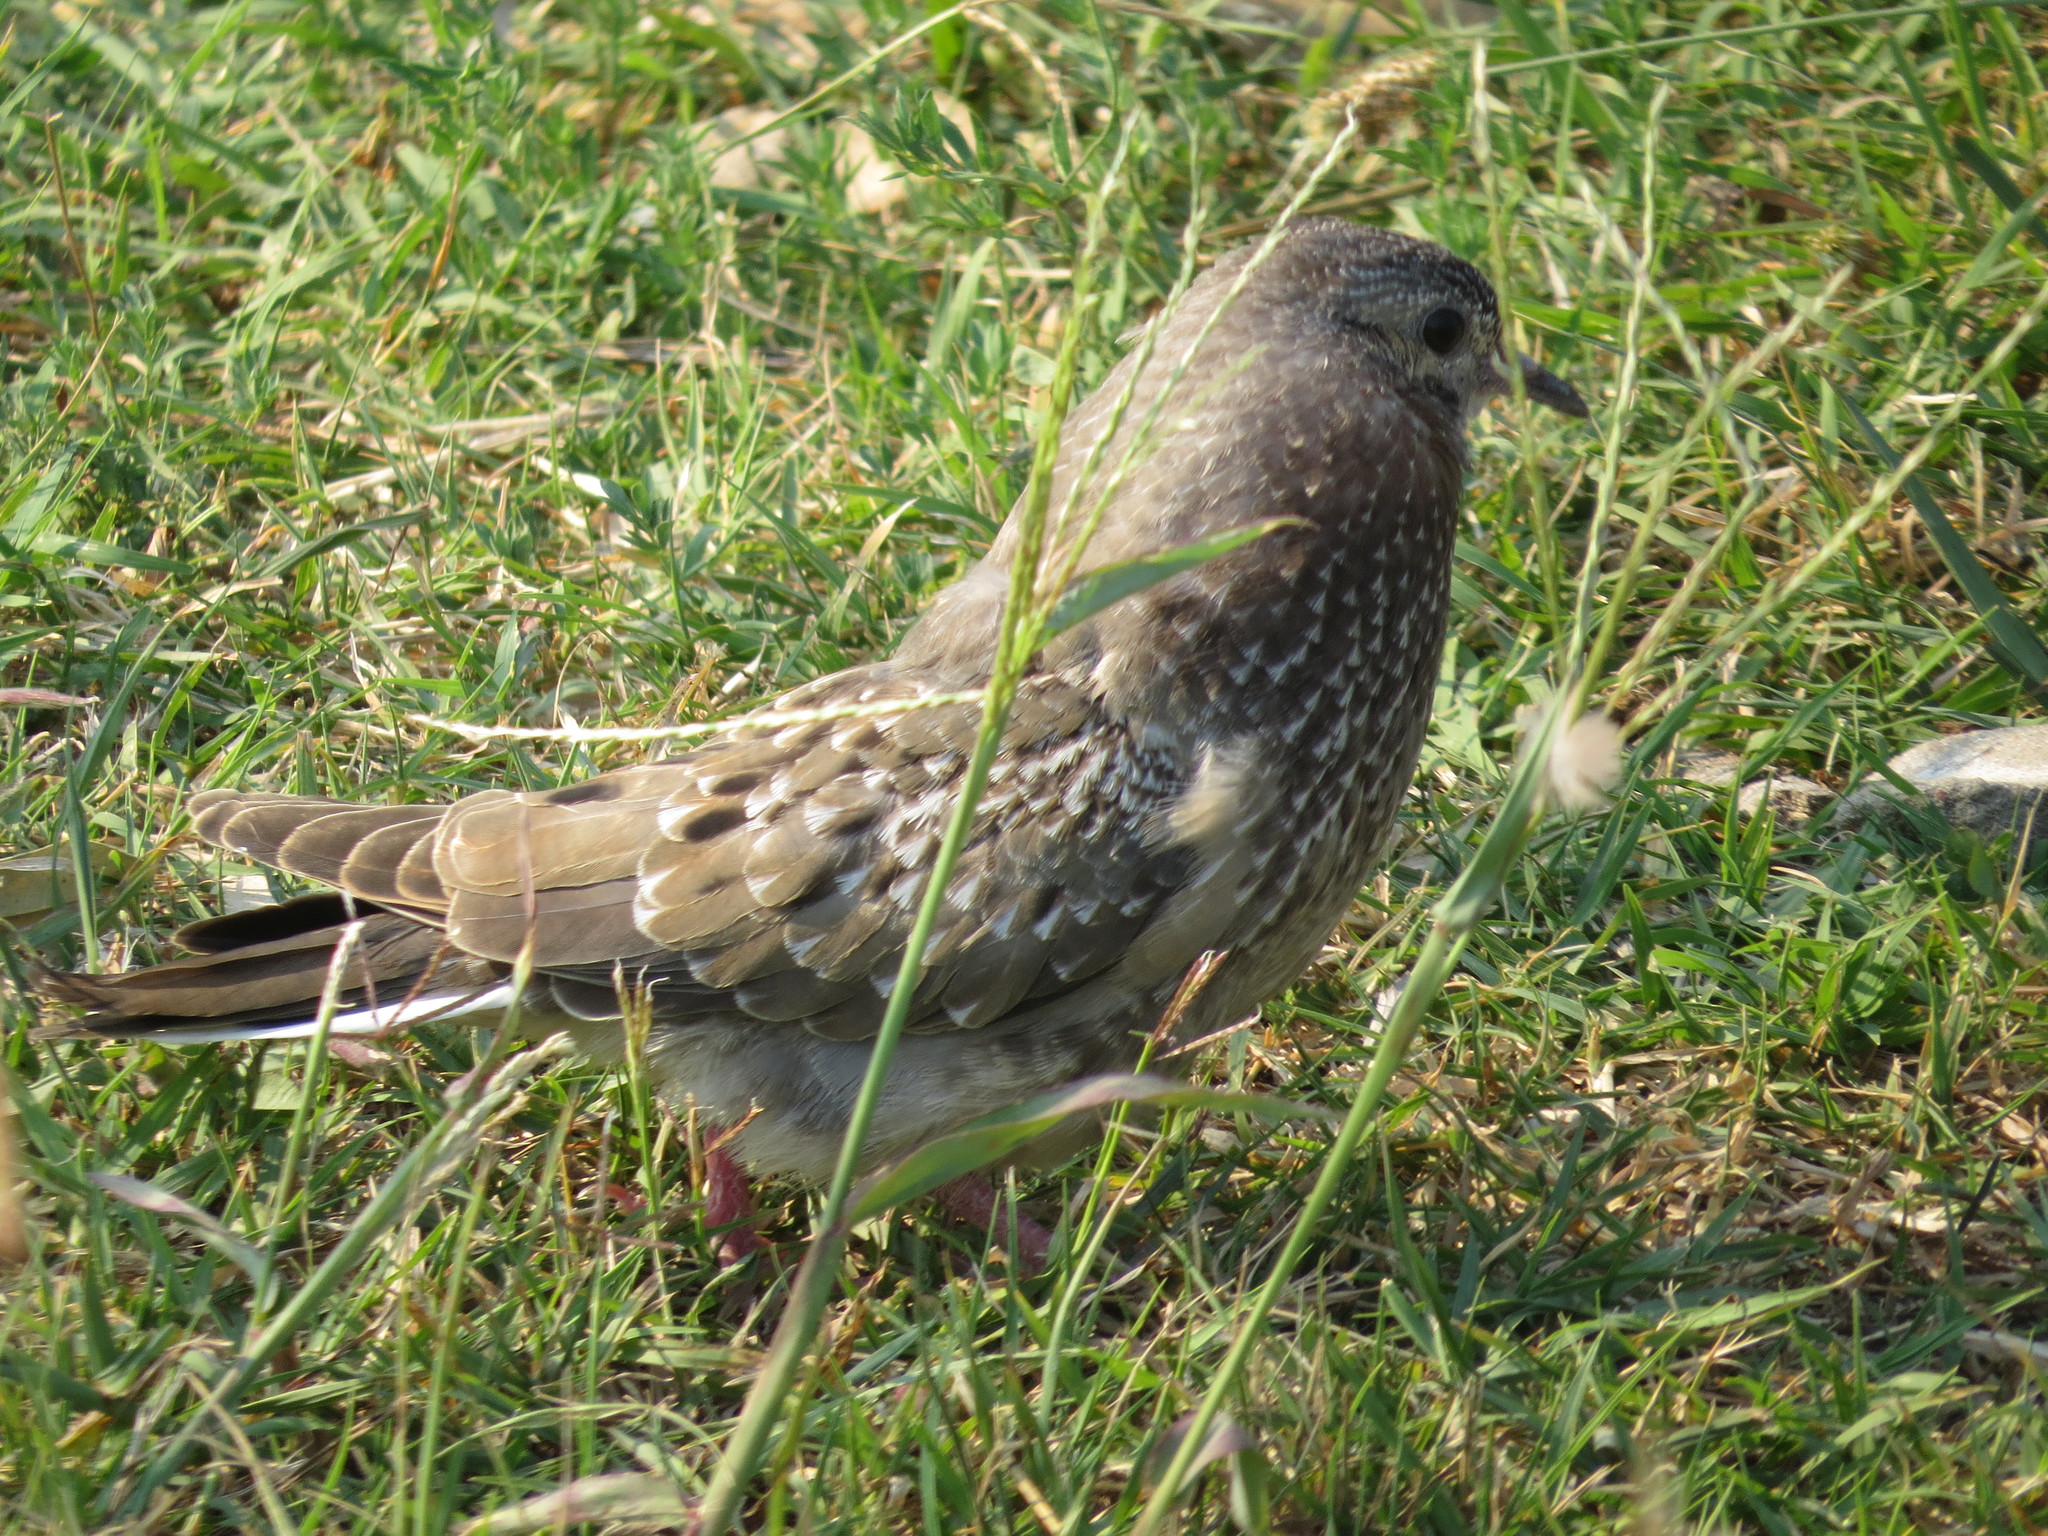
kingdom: Animalia
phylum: Chordata
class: Aves
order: Columbiformes
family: Columbidae
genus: Zenaida
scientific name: Zenaida auriculata
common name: Eared dove
